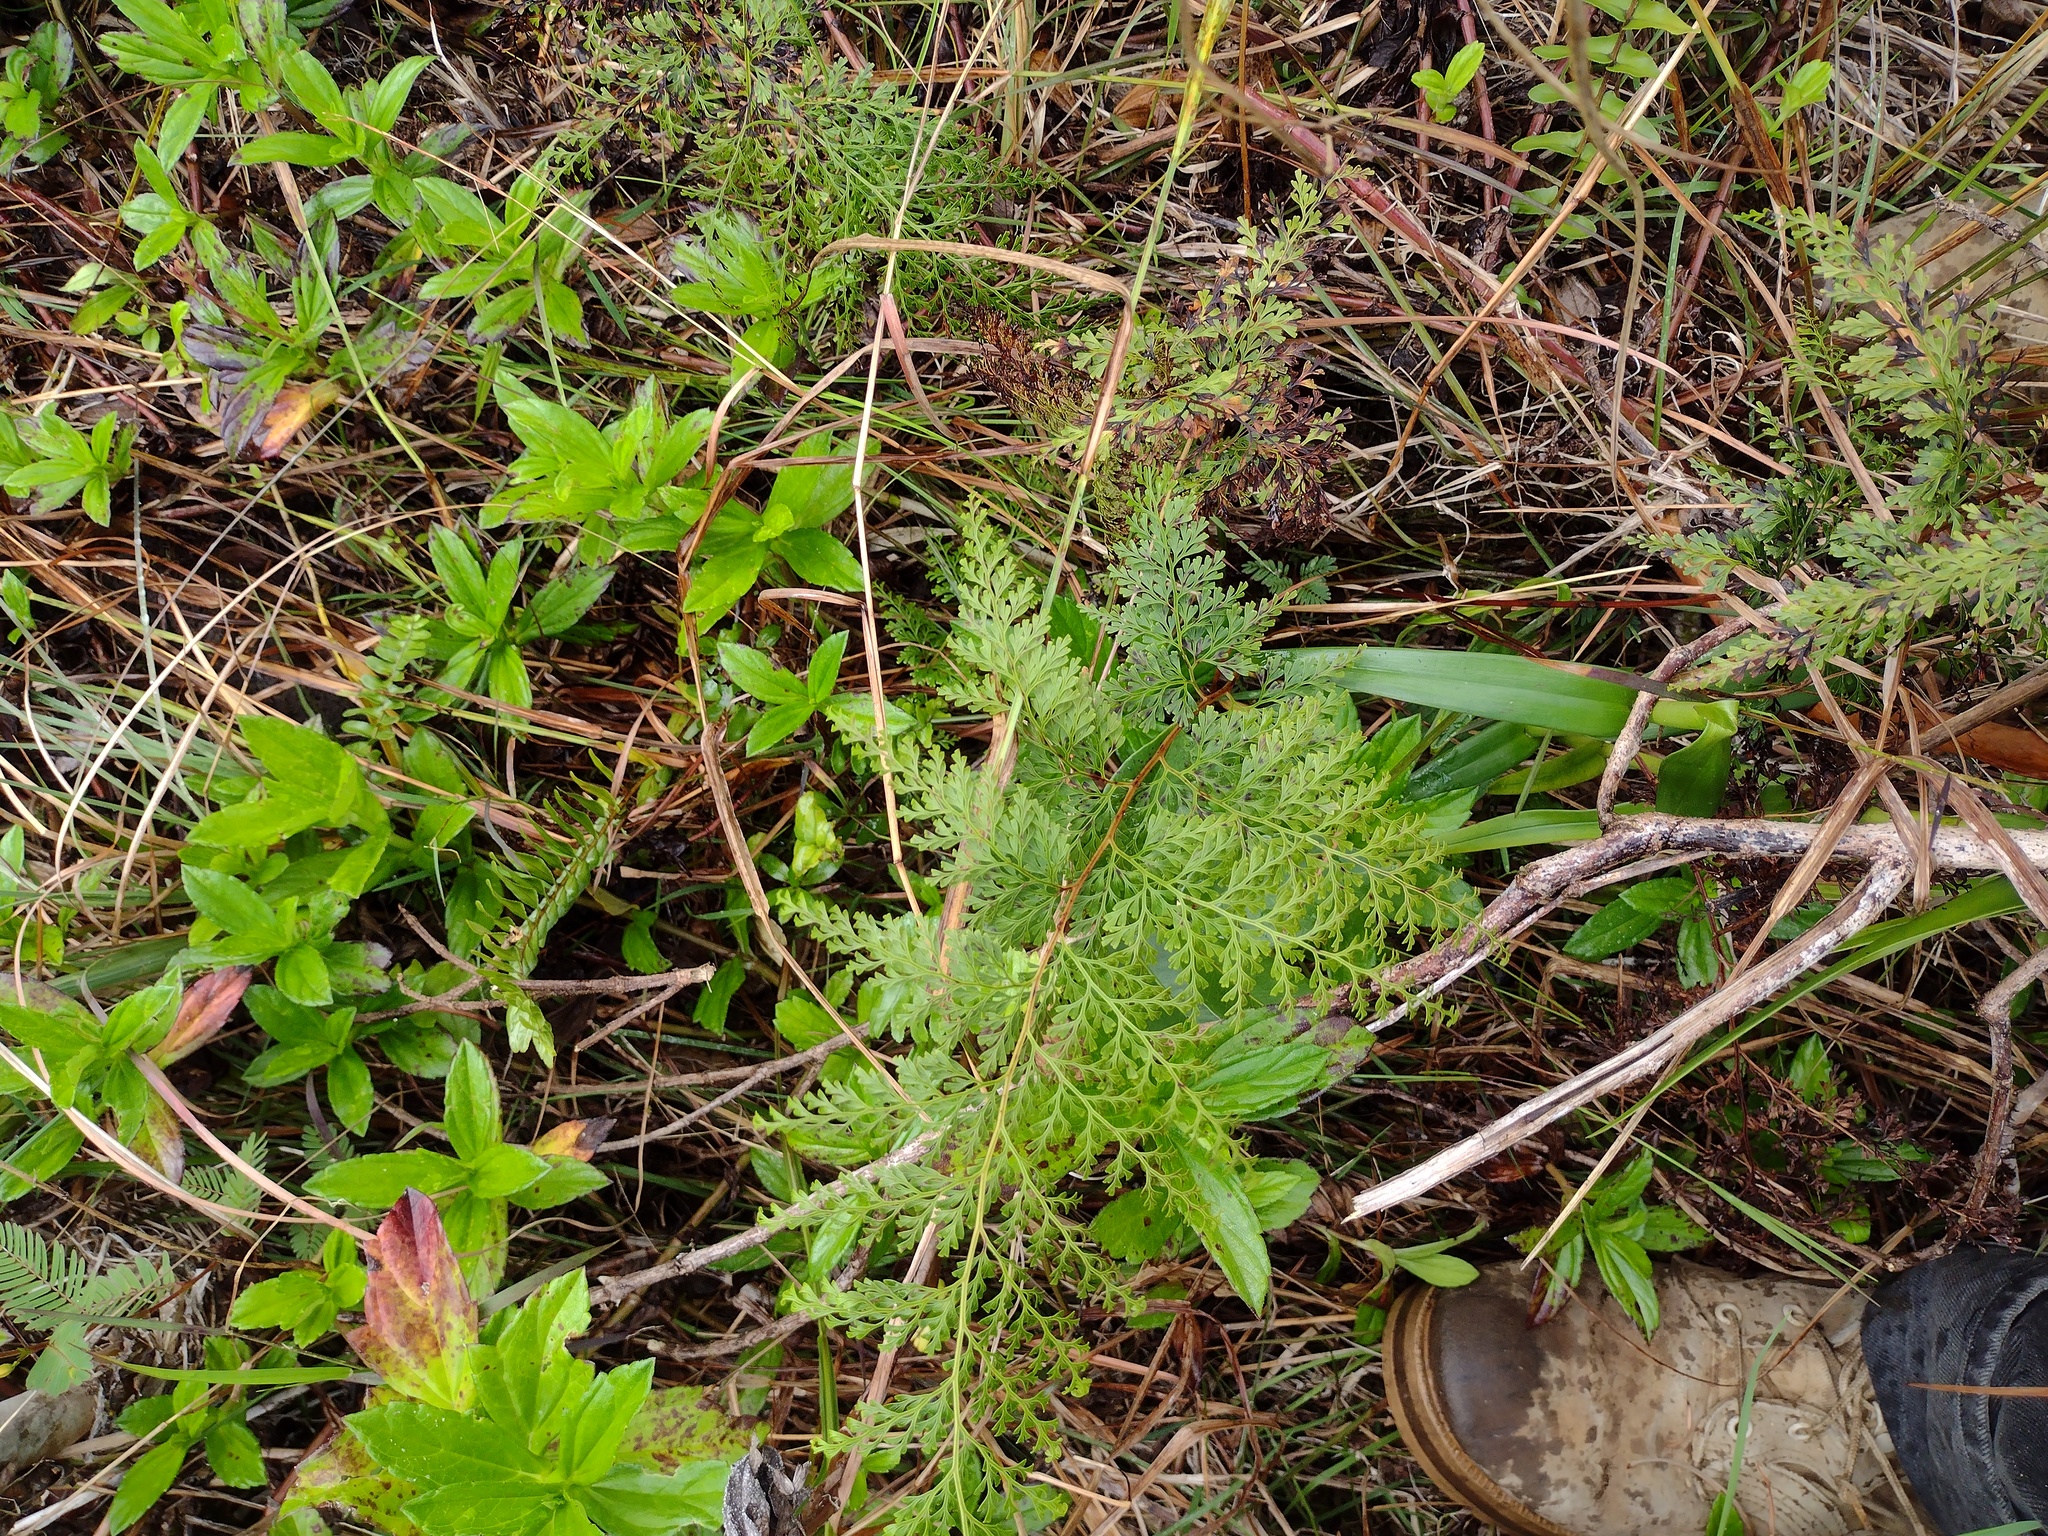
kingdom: Plantae
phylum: Tracheophyta
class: Polypodiopsida
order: Polypodiales
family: Lindsaeaceae
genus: Odontosoria
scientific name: Odontosoria chinensis
